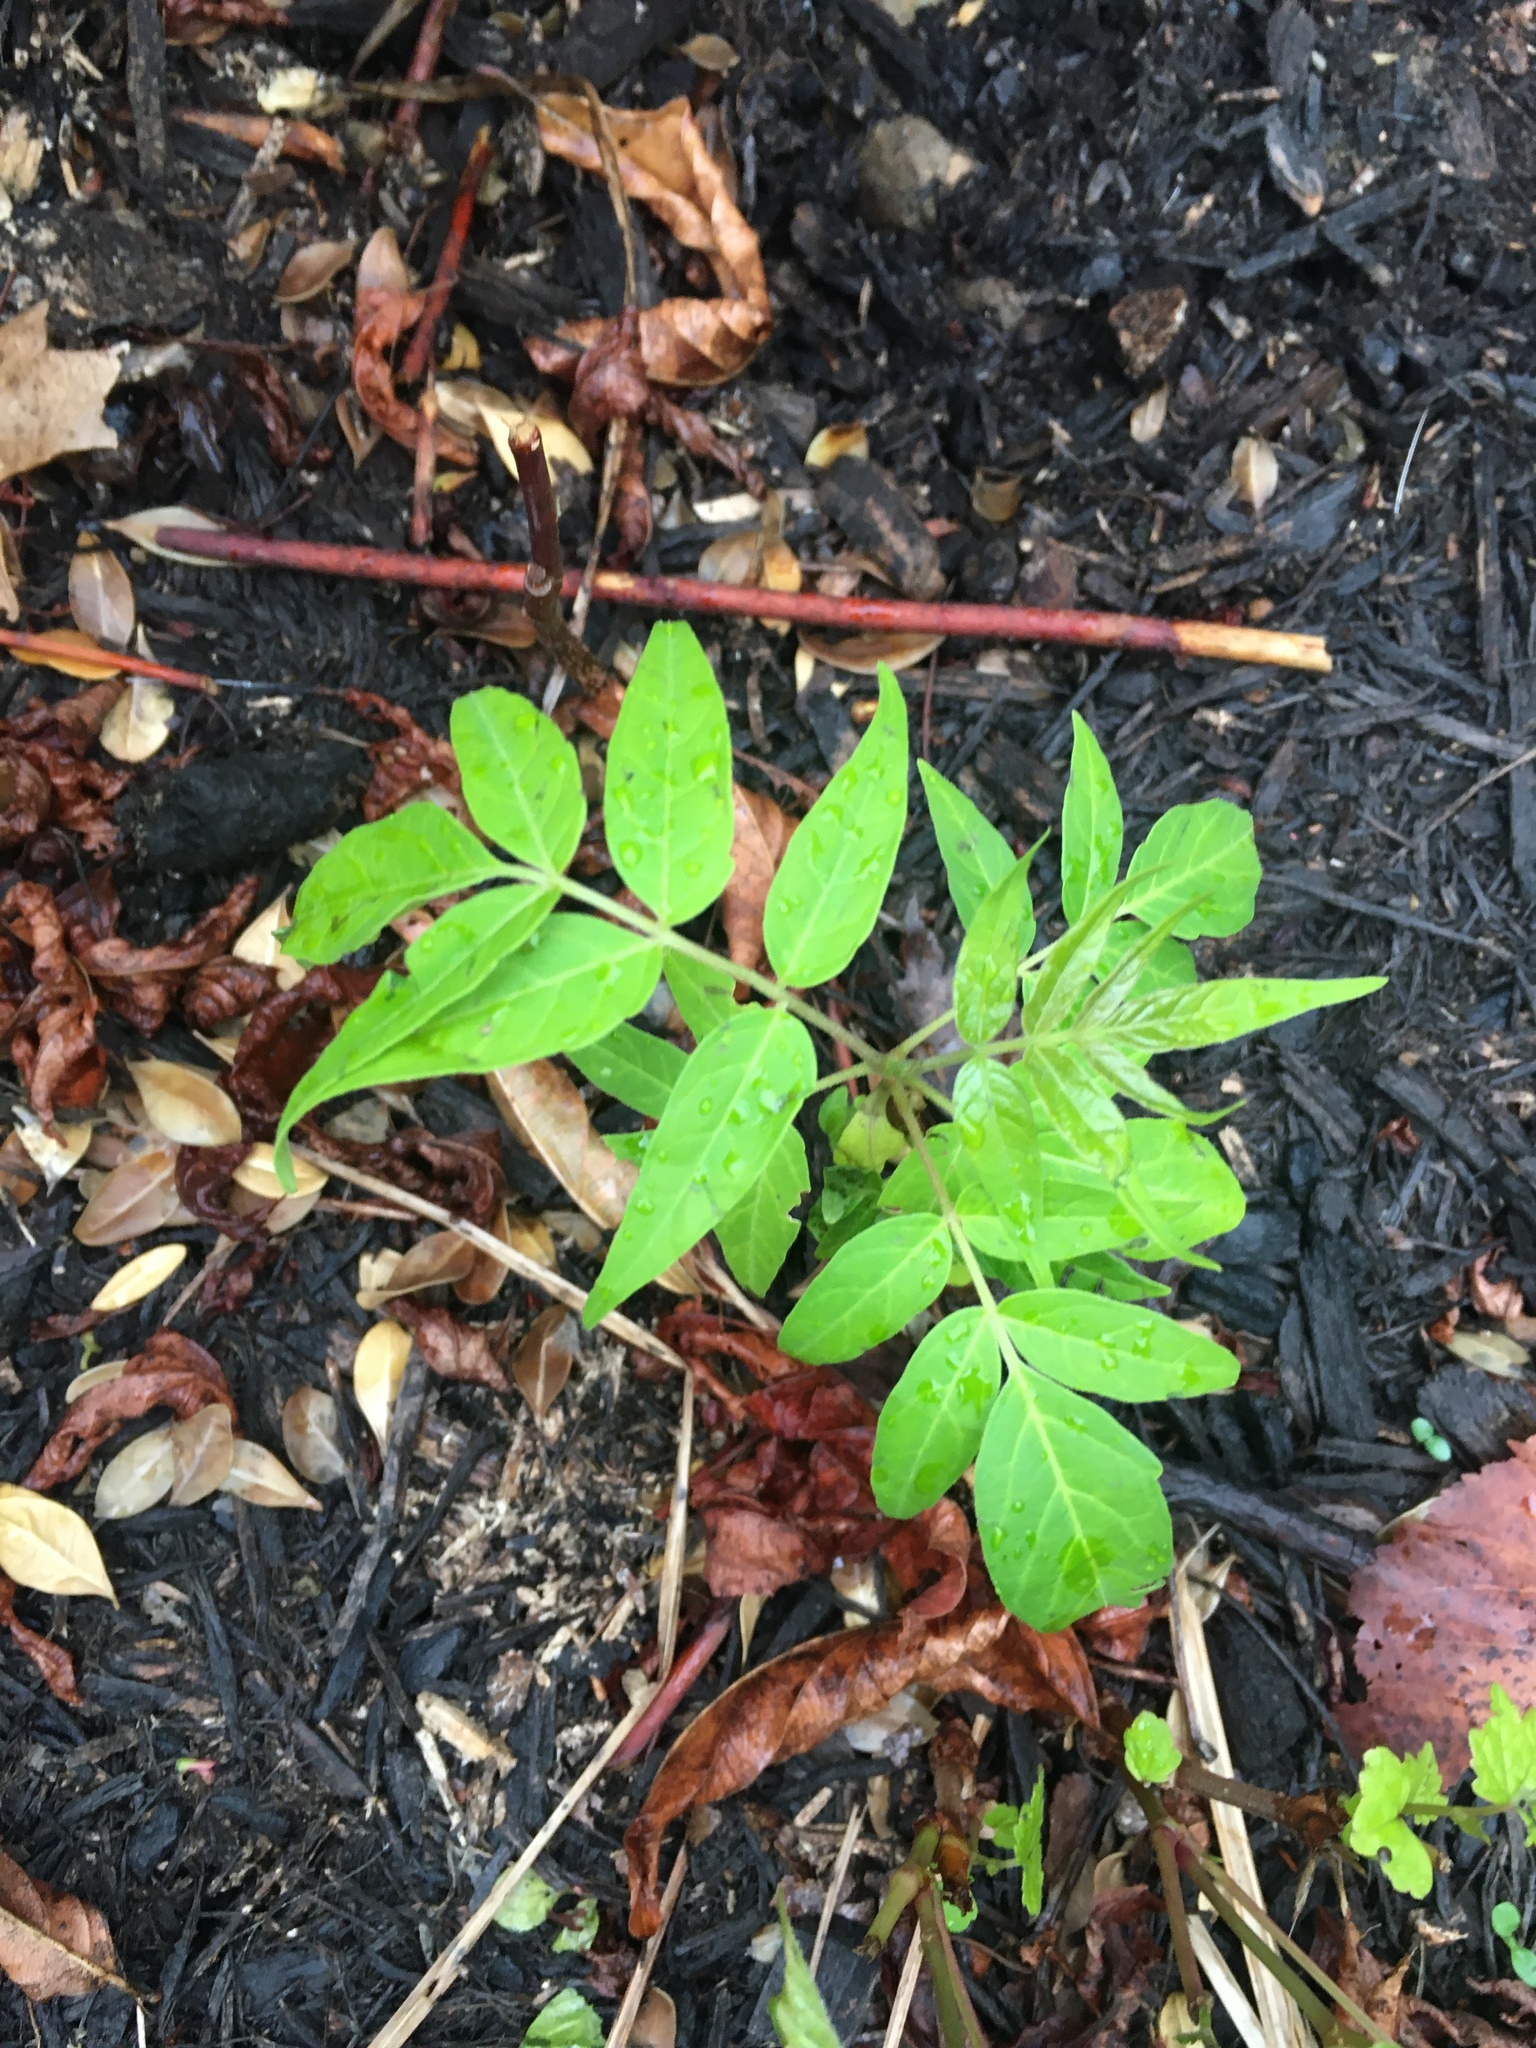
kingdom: Plantae
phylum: Tracheophyta
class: Magnoliopsida
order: Sapindales
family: Simaroubaceae
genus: Ailanthus
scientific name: Ailanthus altissima
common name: Tree-of-heaven
